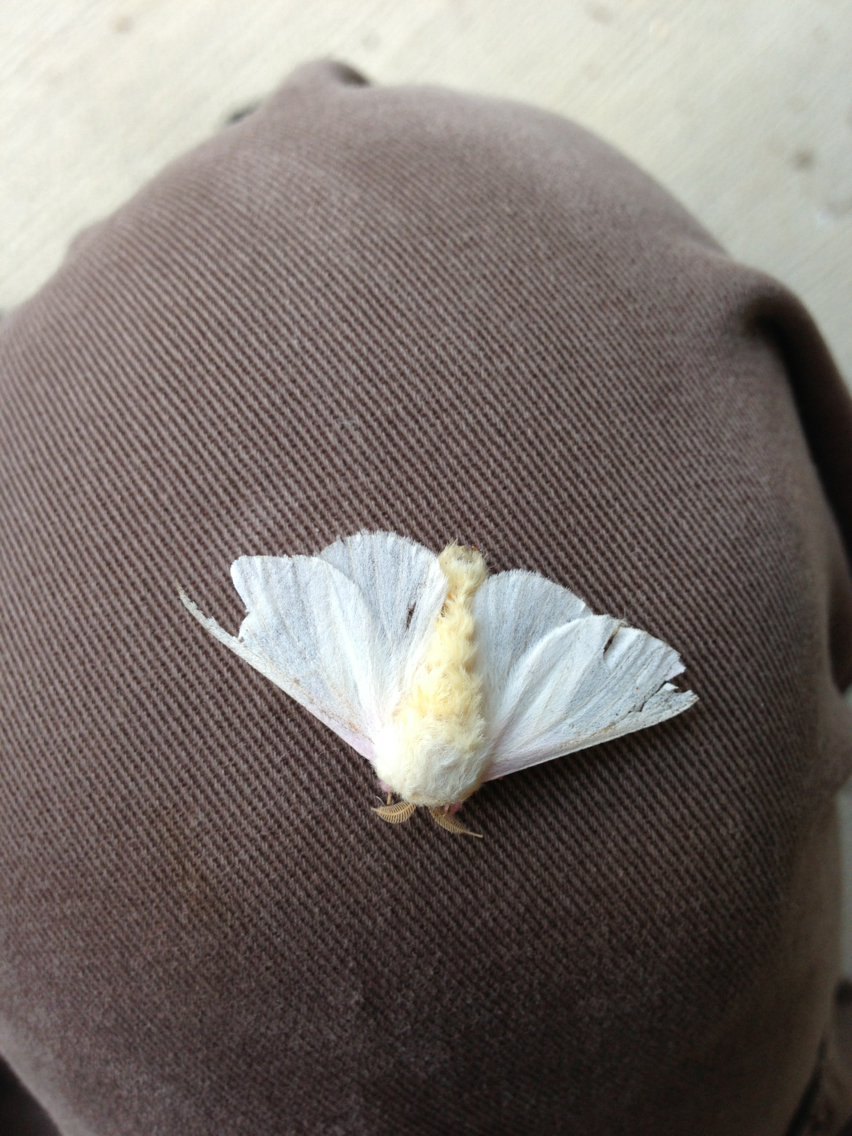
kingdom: Animalia
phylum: Arthropoda
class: Insecta
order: Lepidoptera
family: Saturniidae
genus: Dryocampa
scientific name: Dryocampa rubicunda
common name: Rosy maple moth
